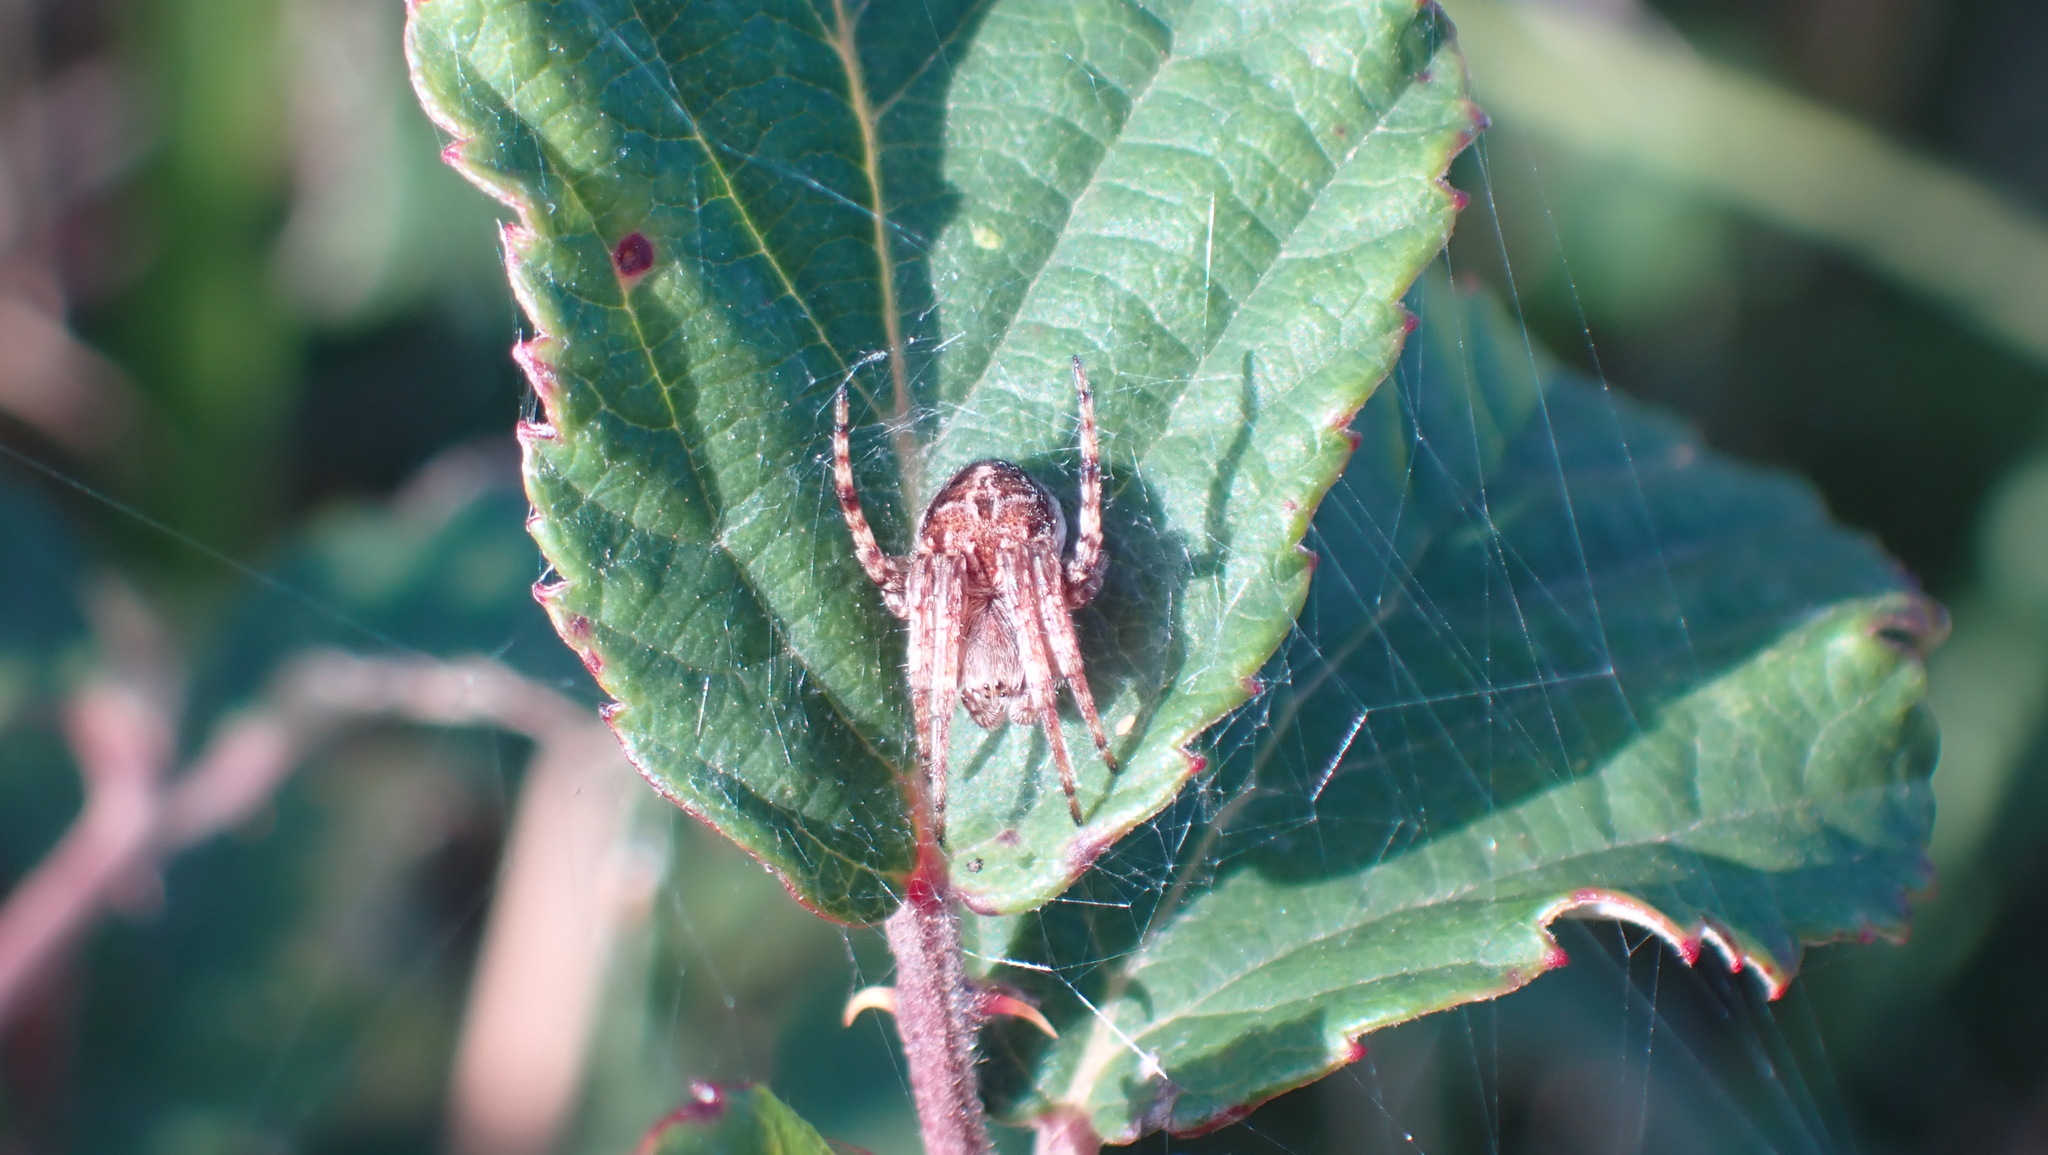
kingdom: Animalia
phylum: Arthropoda
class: Arachnida
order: Araneae
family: Araneidae
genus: Agalenatea
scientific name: Agalenatea redii
